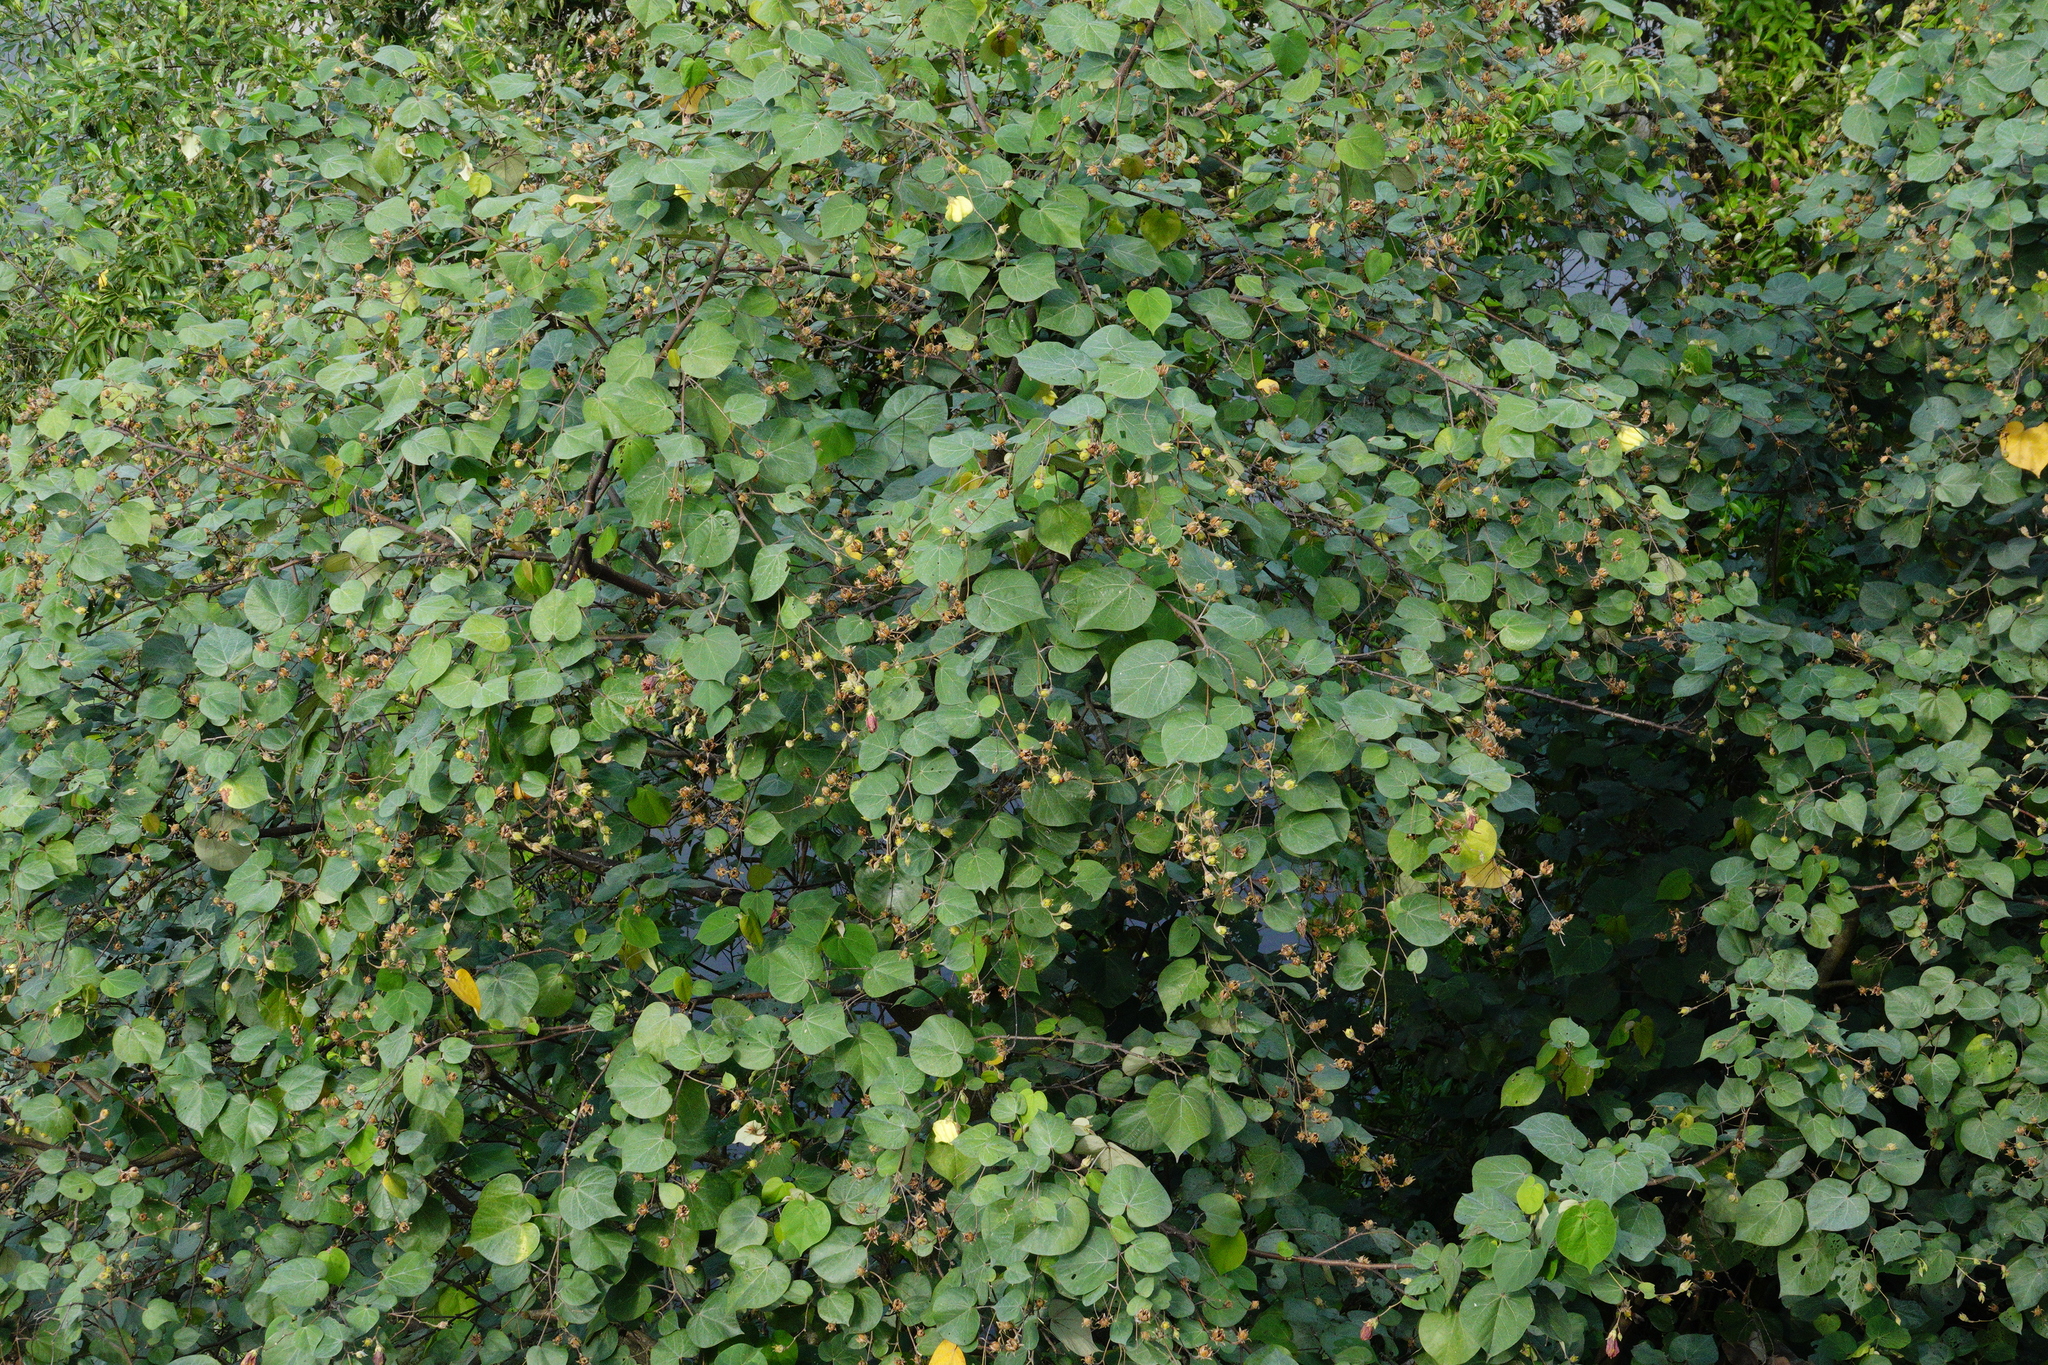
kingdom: Plantae
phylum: Tracheophyta
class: Magnoliopsida
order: Malvales
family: Malvaceae
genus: Talipariti
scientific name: Talipariti tiliaceum
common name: Sea hibiscus
